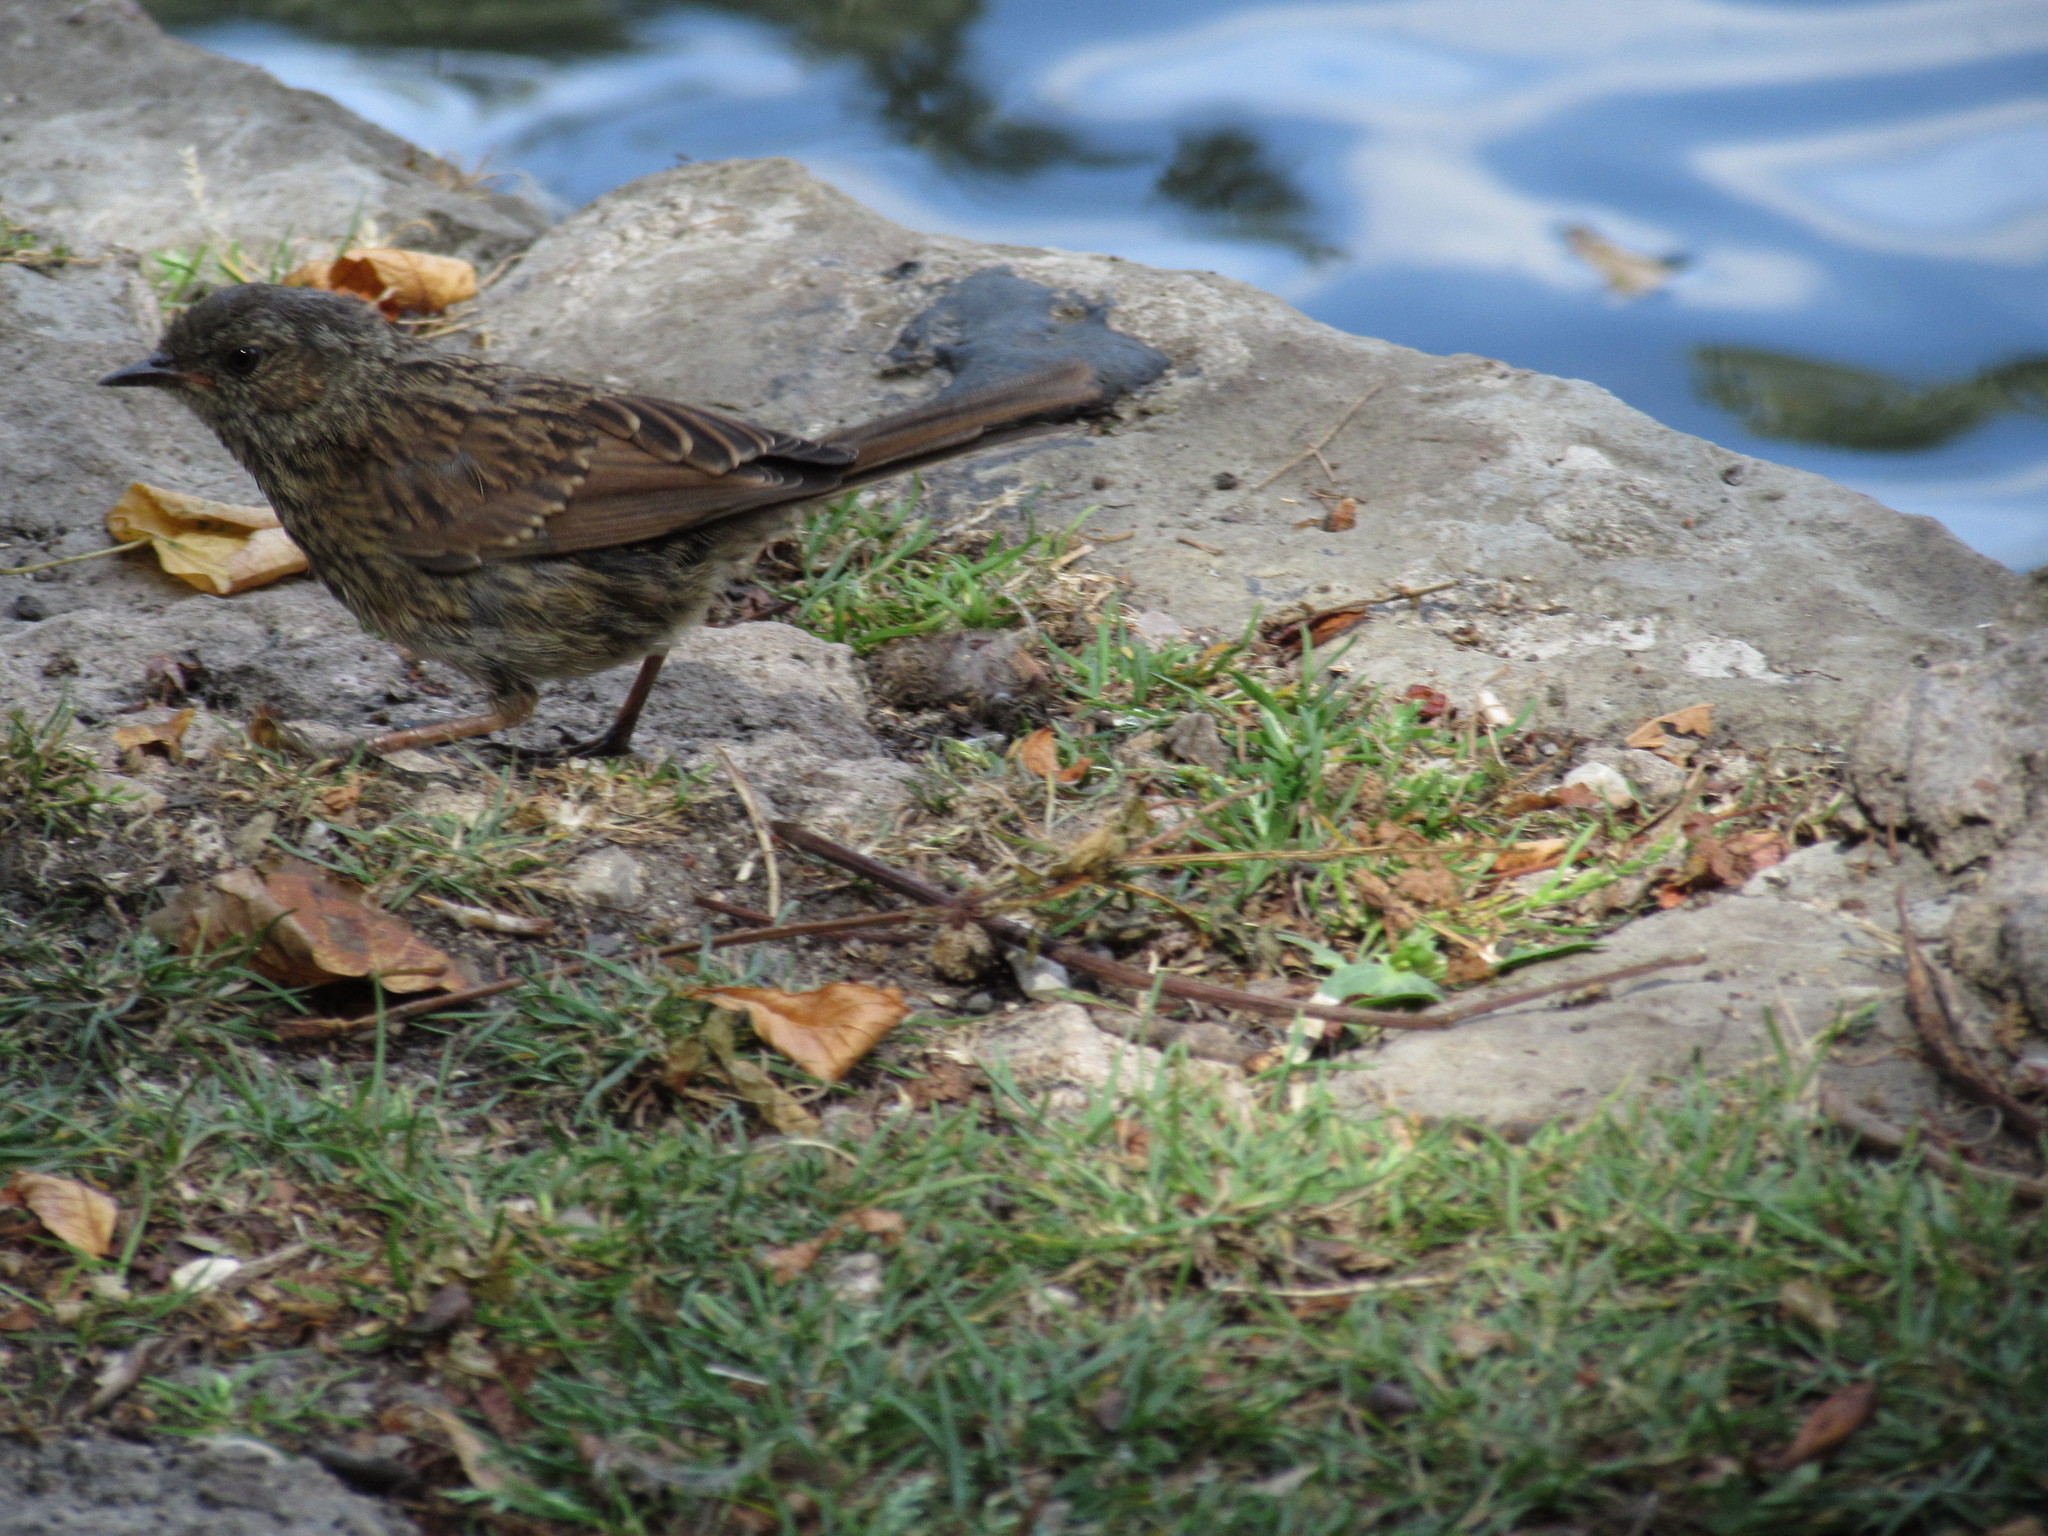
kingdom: Animalia
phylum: Chordata
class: Aves
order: Passeriformes
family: Prunellidae
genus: Prunella
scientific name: Prunella modularis
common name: Dunnock
